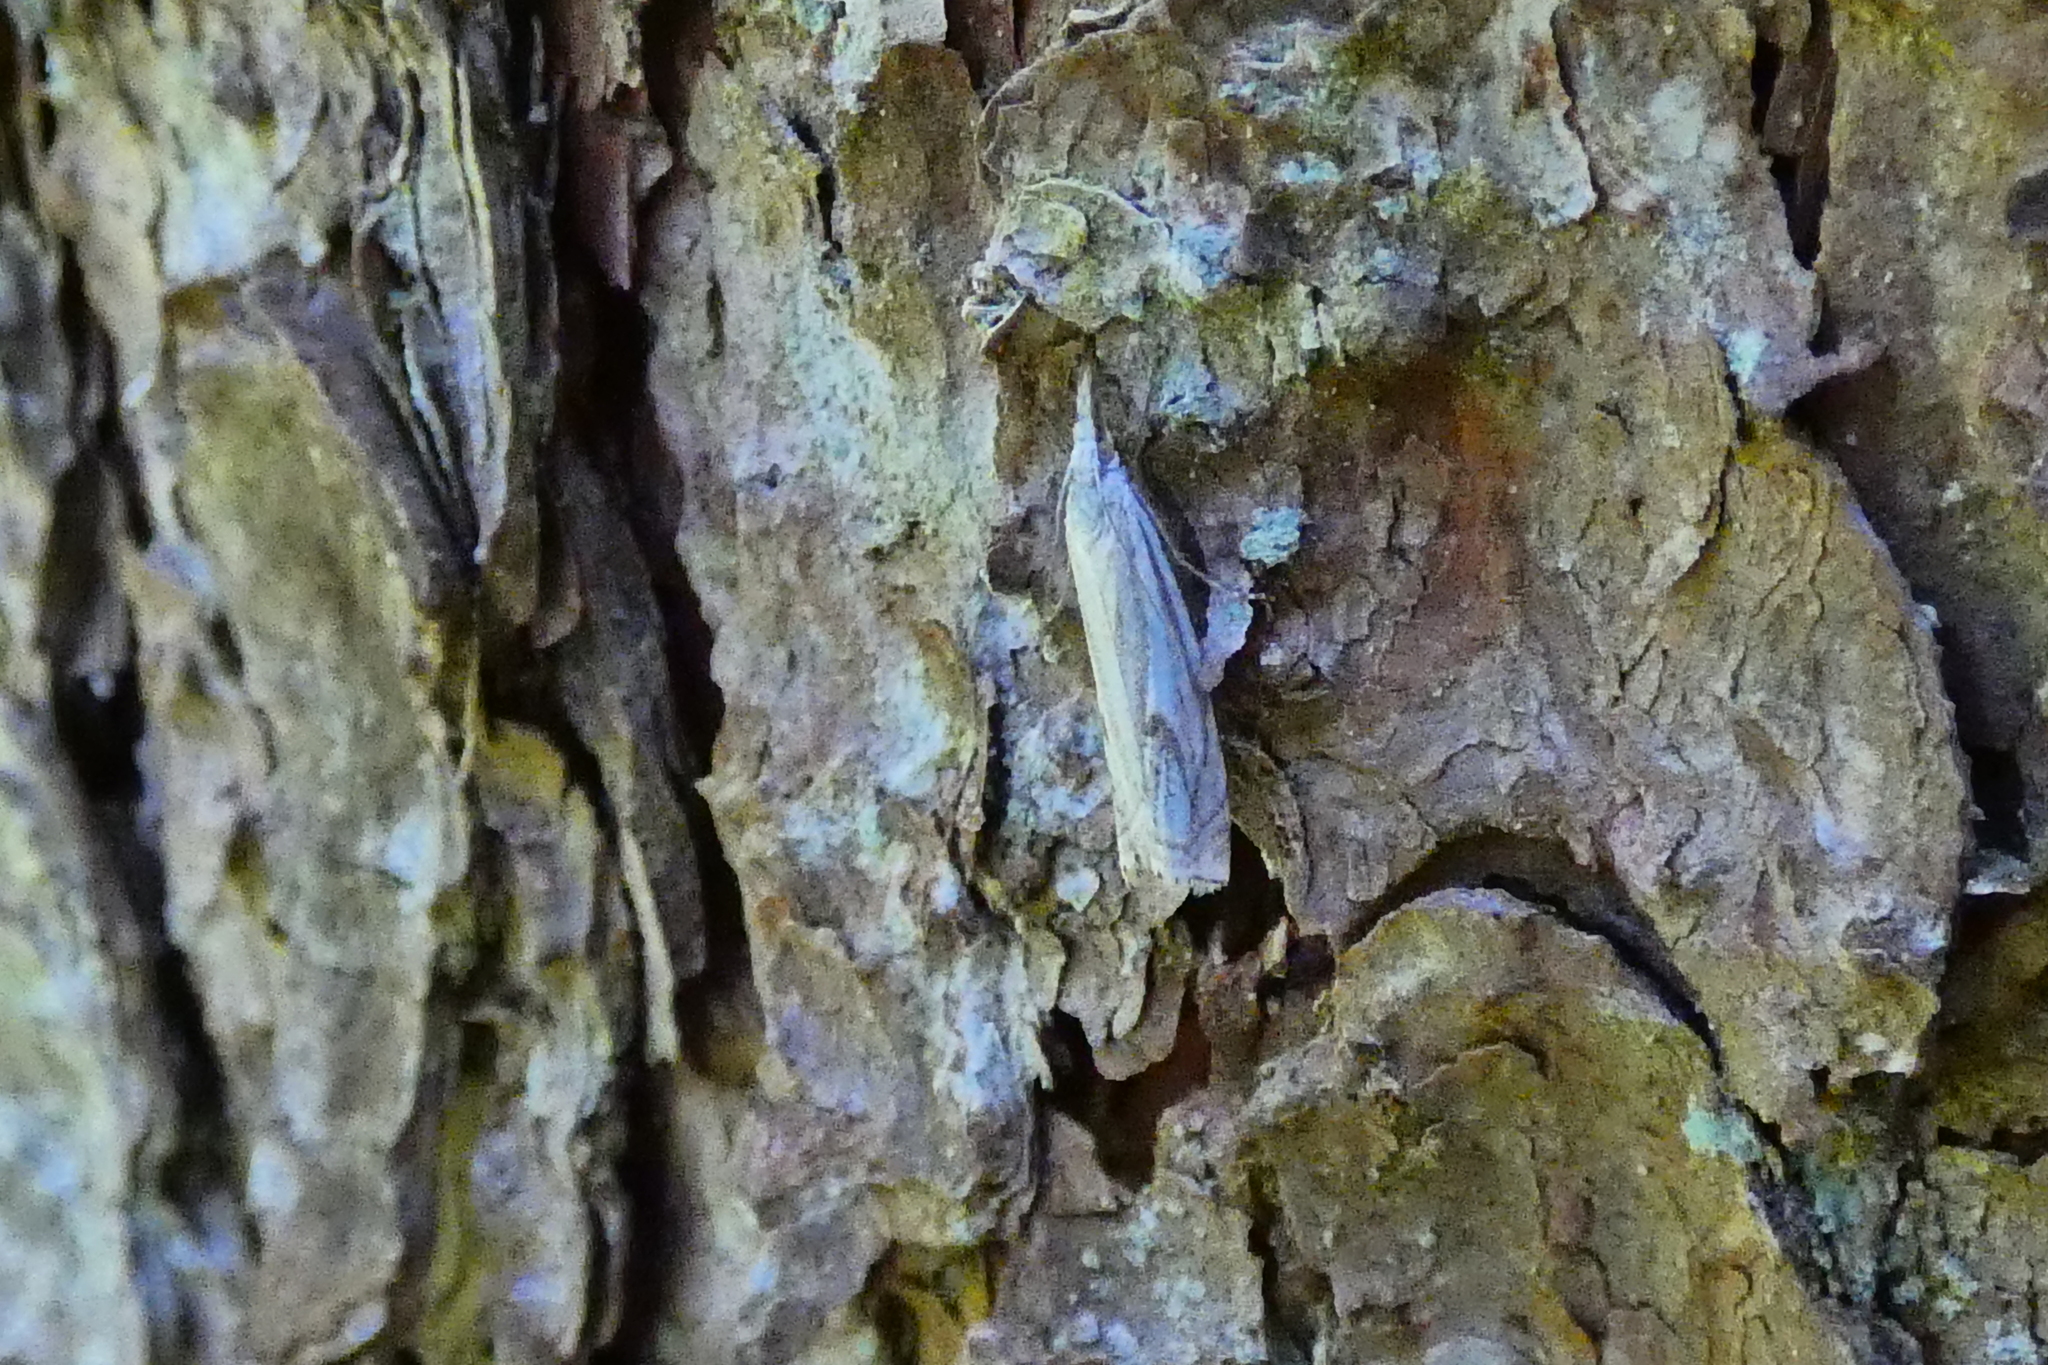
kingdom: Animalia
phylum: Arthropoda
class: Insecta
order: Lepidoptera
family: Crambidae
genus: Crambus
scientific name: Crambus nemorella
